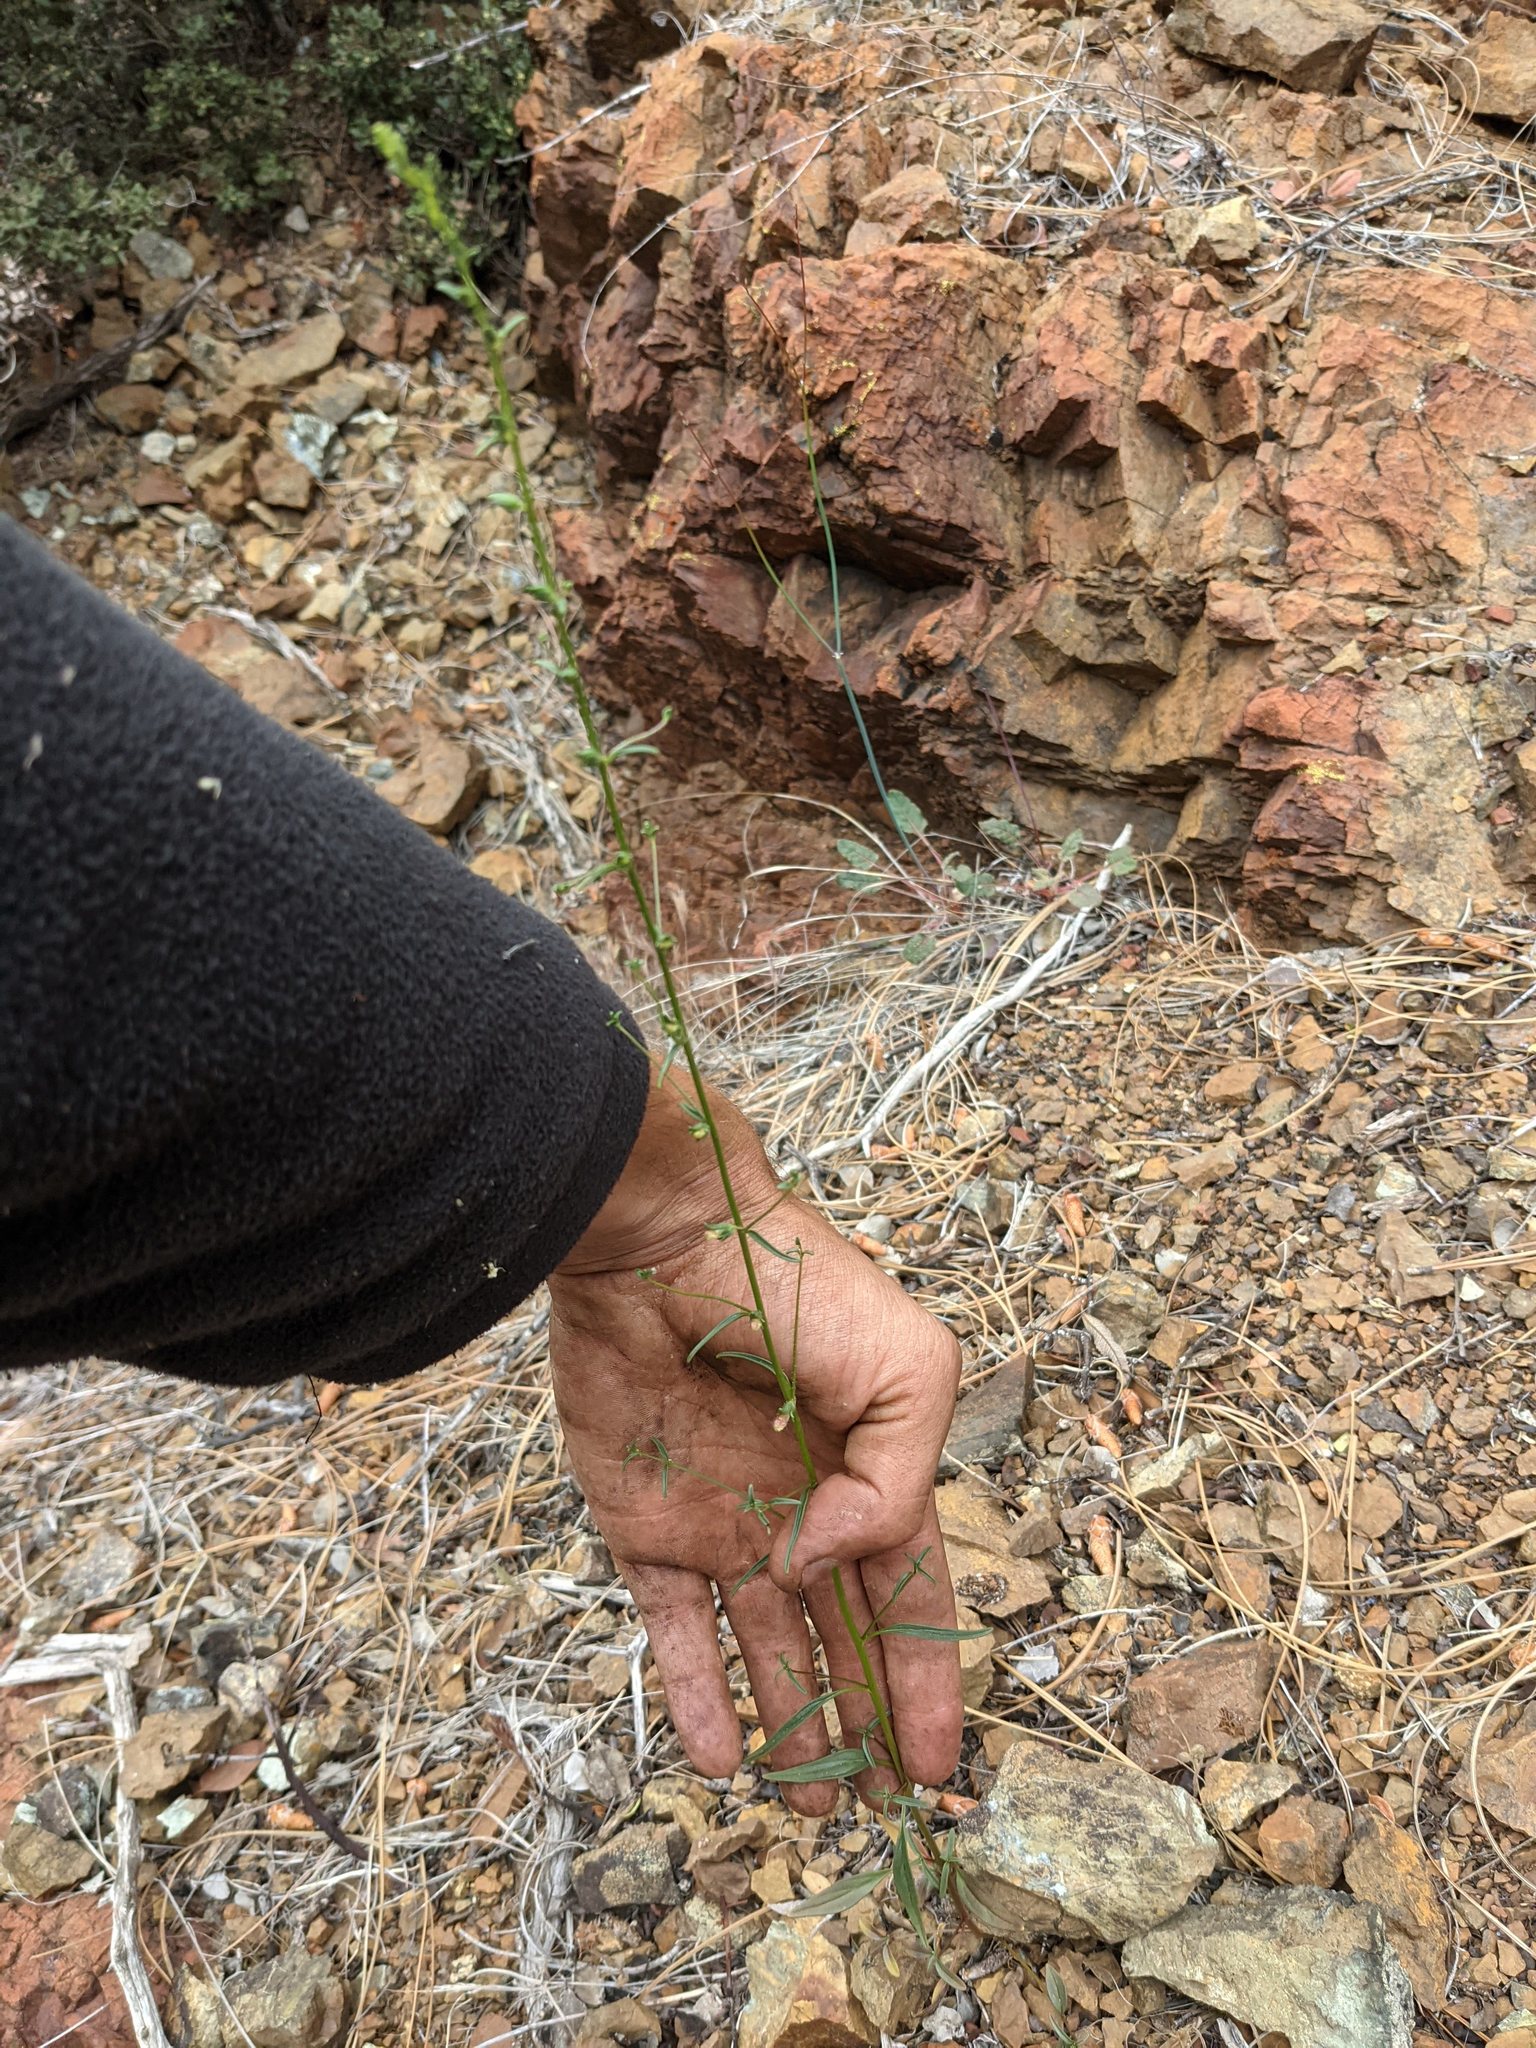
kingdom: Plantae
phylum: Tracheophyta
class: Magnoliopsida
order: Lamiales
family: Plantaginaceae
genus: Sairocarpus
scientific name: Sairocarpus vexillocalyculatus
